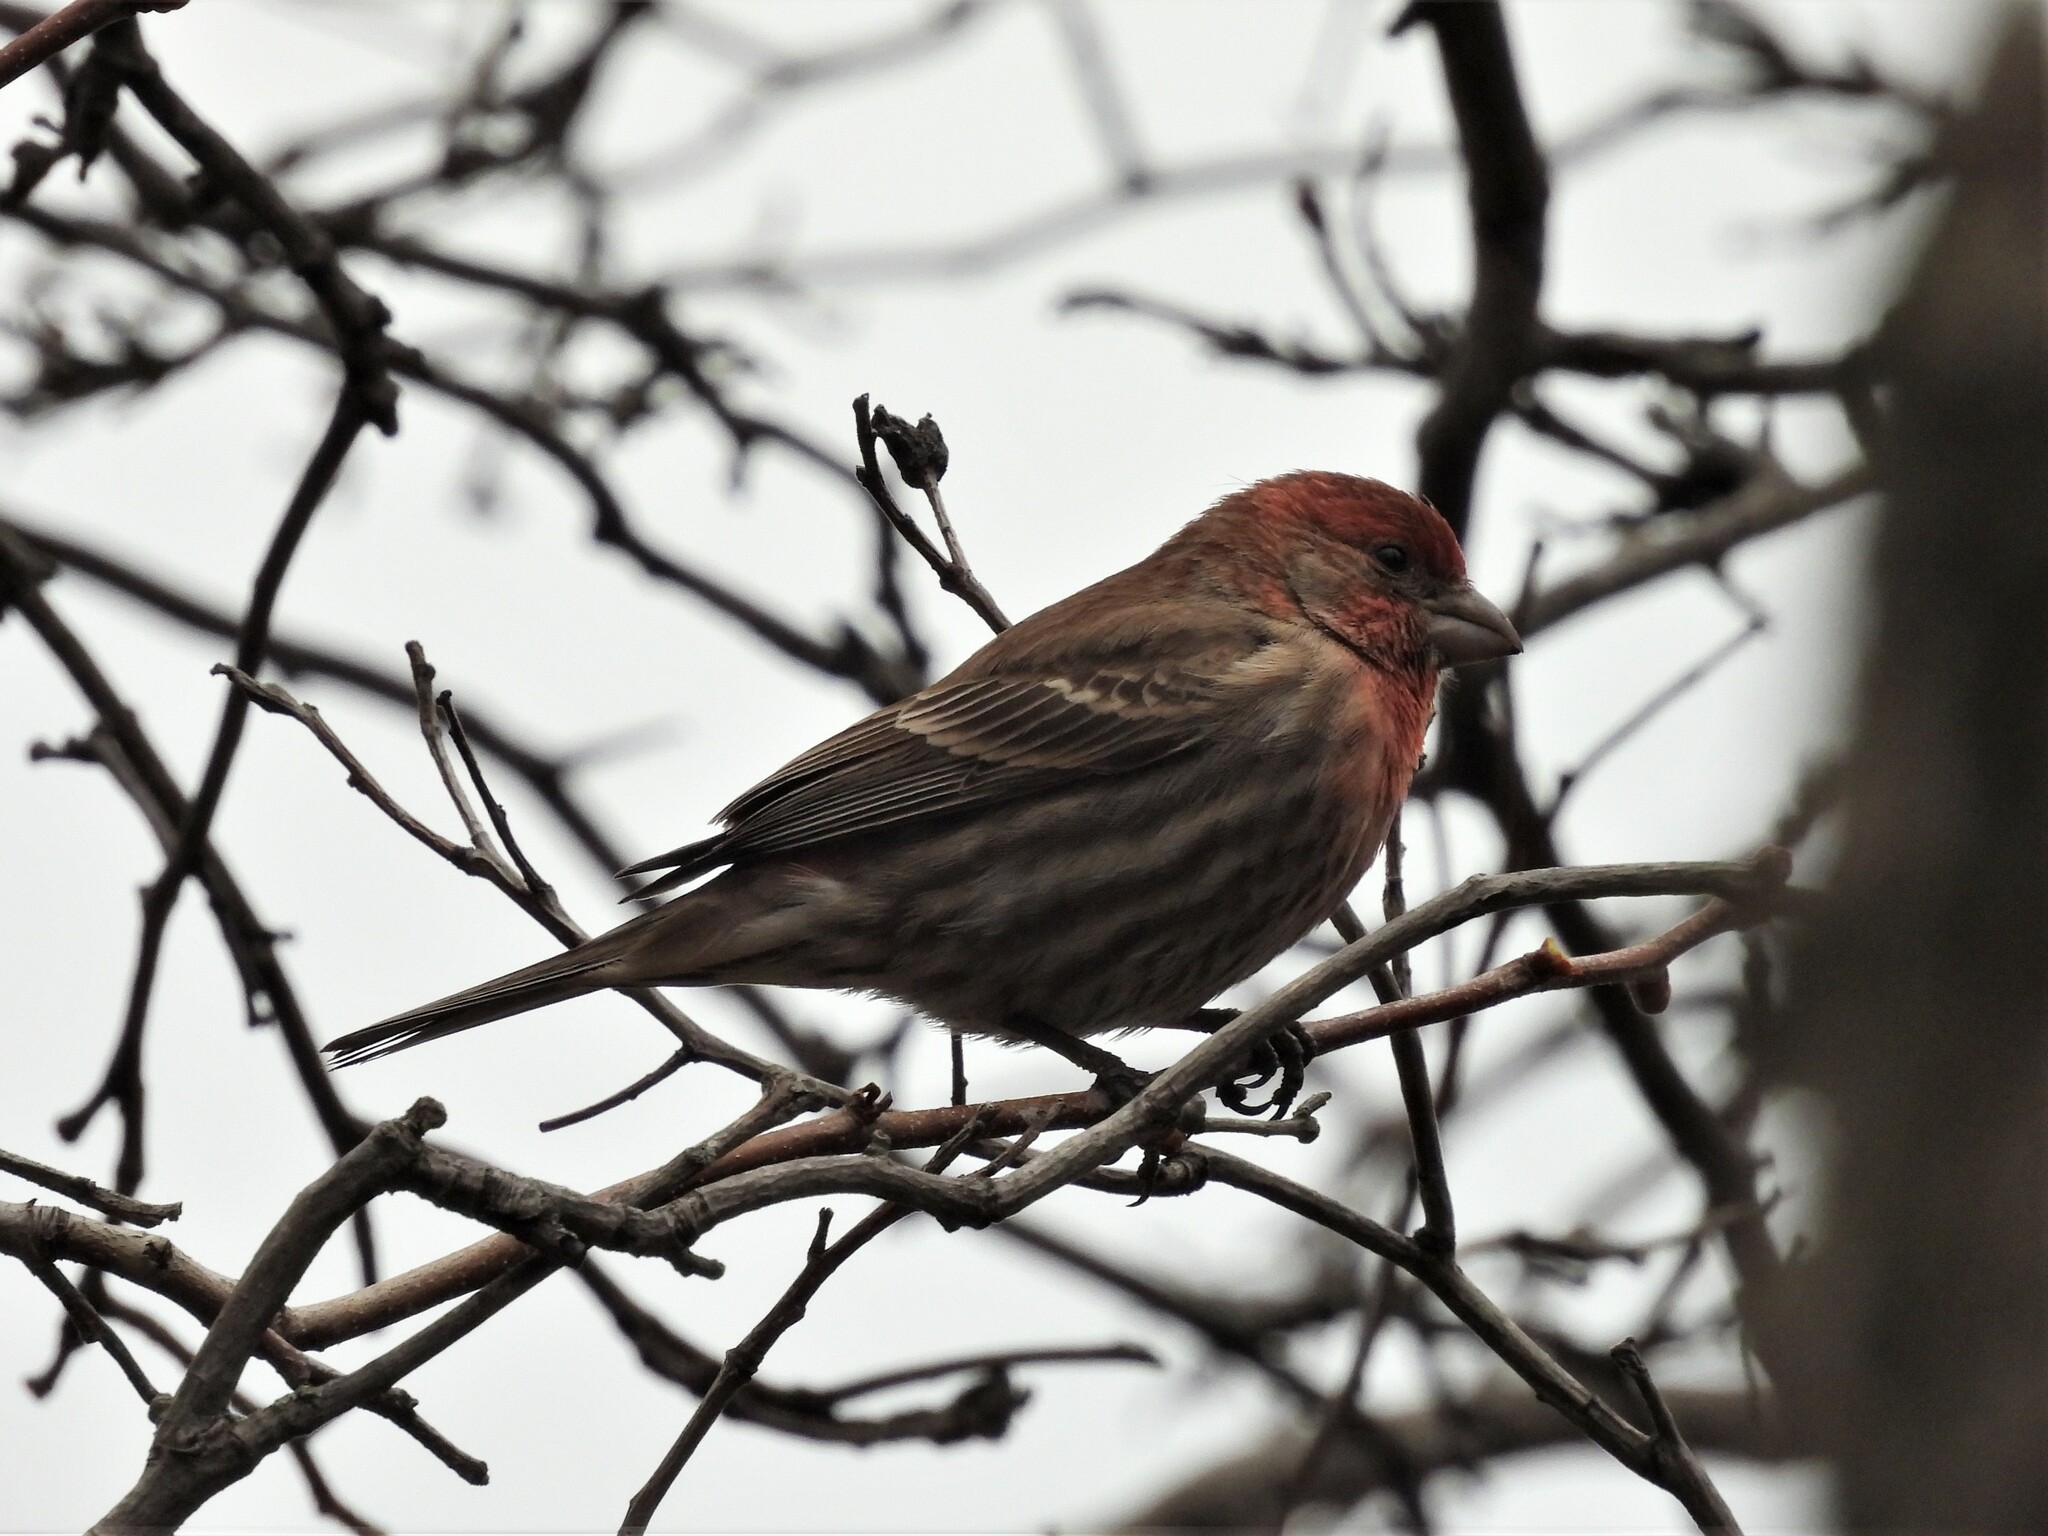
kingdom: Animalia
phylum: Chordata
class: Aves
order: Passeriformes
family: Fringillidae
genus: Haemorhous
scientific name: Haemorhous mexicanus
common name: House finch
